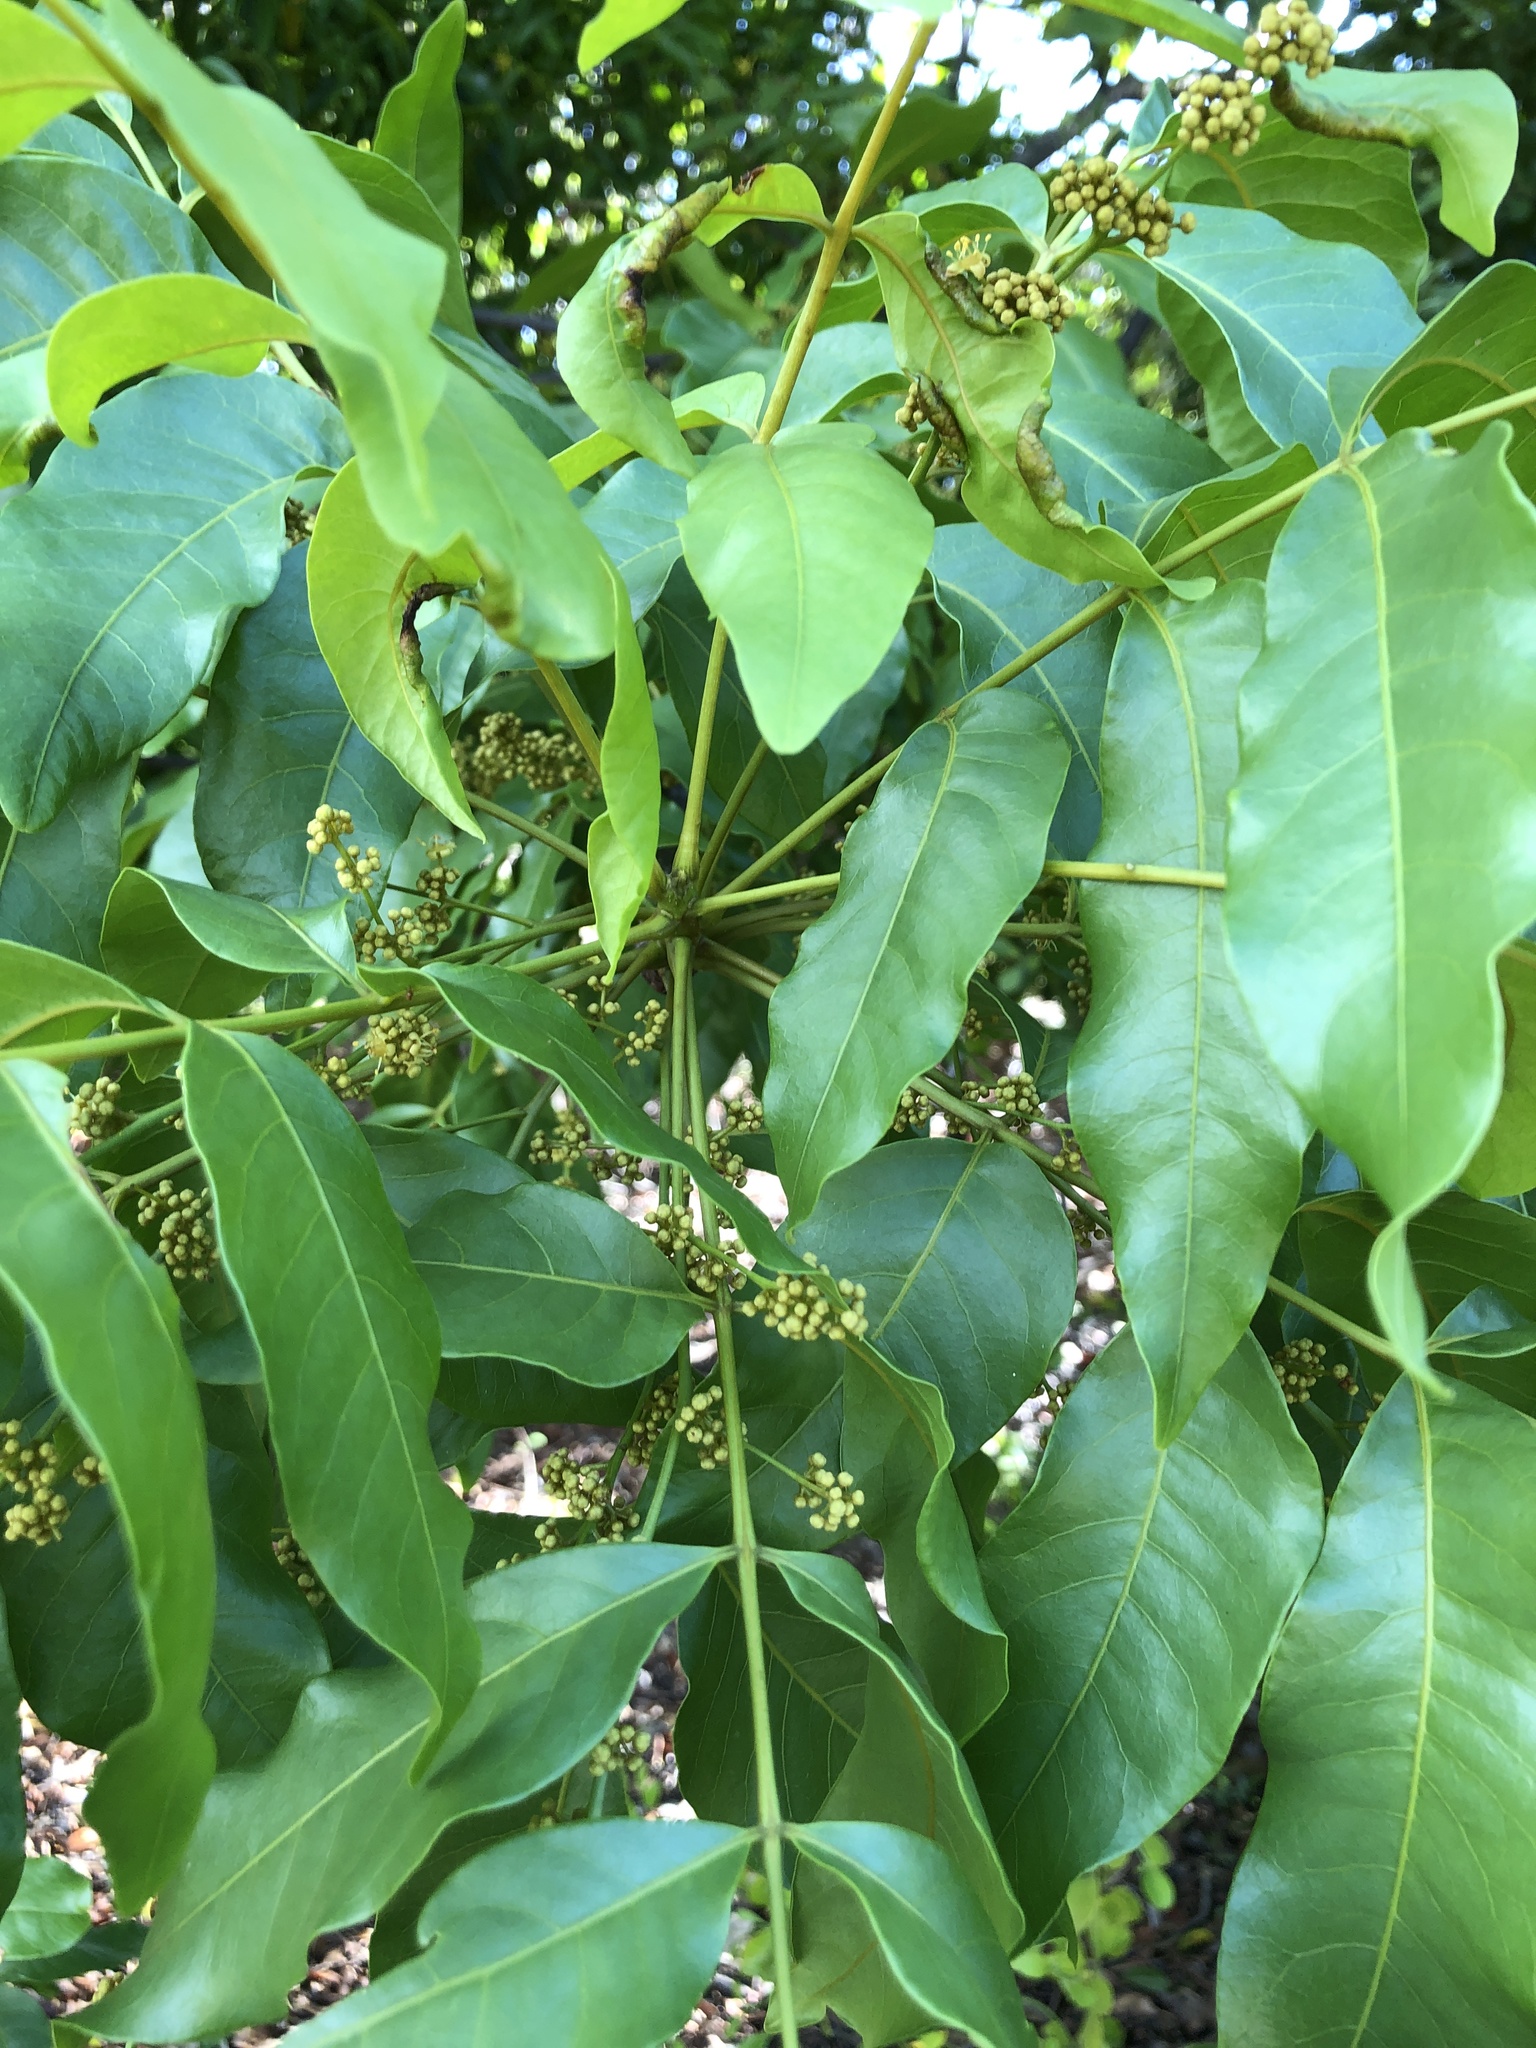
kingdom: Plantae
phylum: Tracheophyta
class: Magnoliopsida
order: Sapindales
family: Anacardiaceae
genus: Pleiogynium
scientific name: Pleiogynium timoriense
